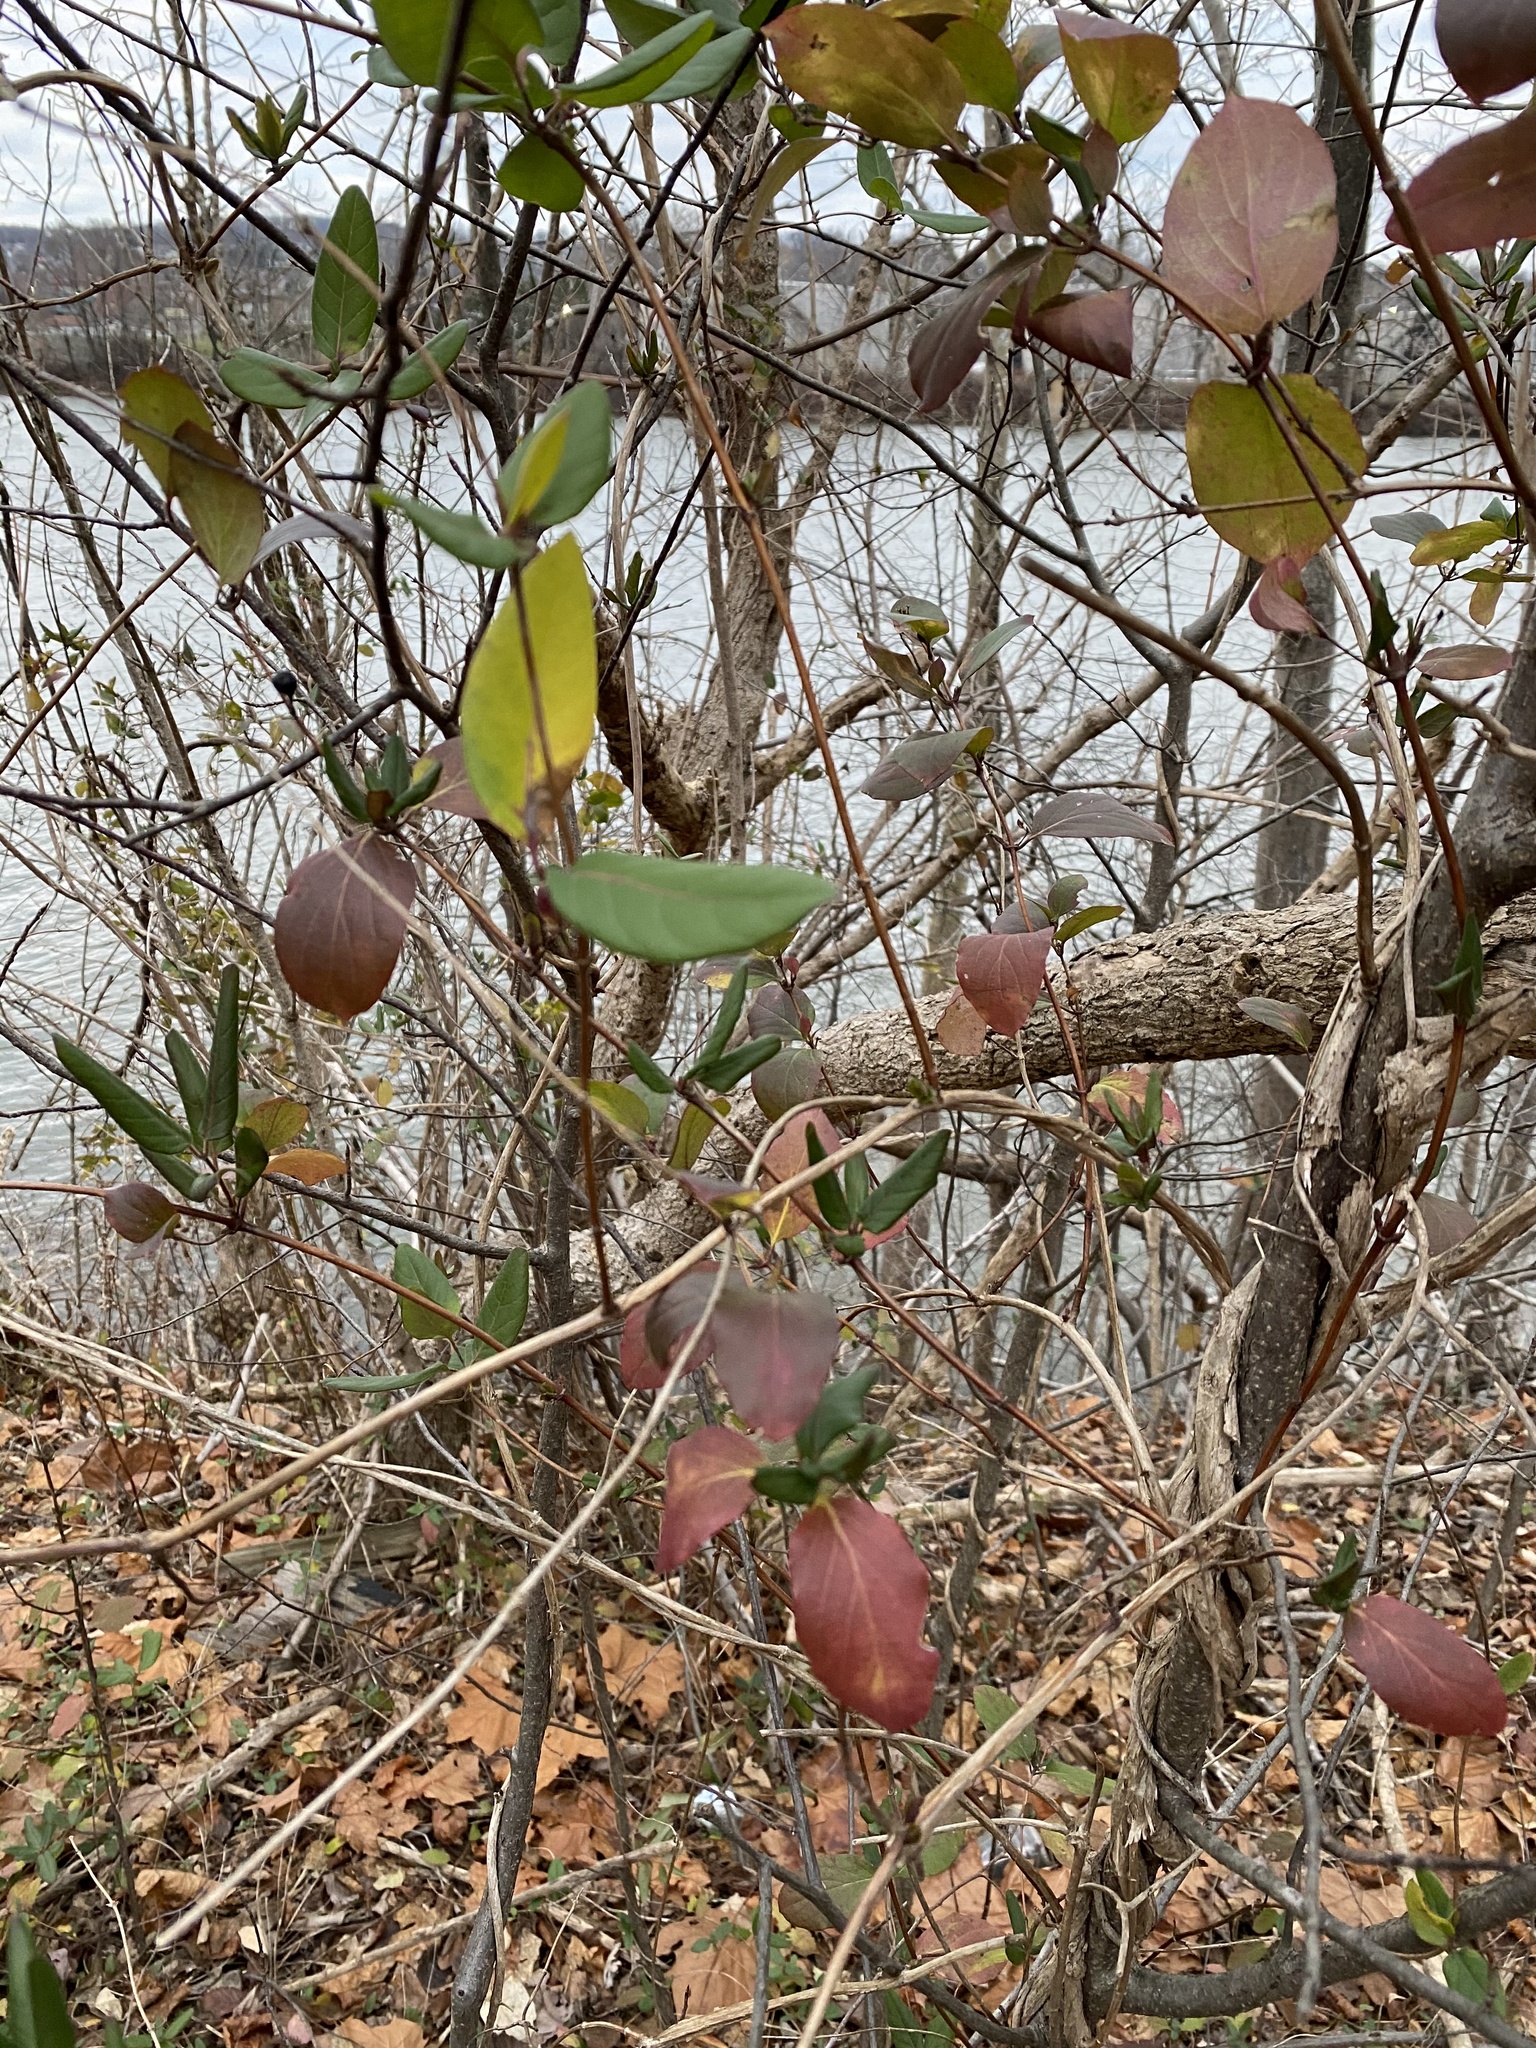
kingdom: Plantae
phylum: Tracheophyta
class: Magnoliopsida
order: Dipsacales
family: Caprifoliaceae
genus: Lonicera
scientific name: Lonicera japonica
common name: Japanese honeysuckle
